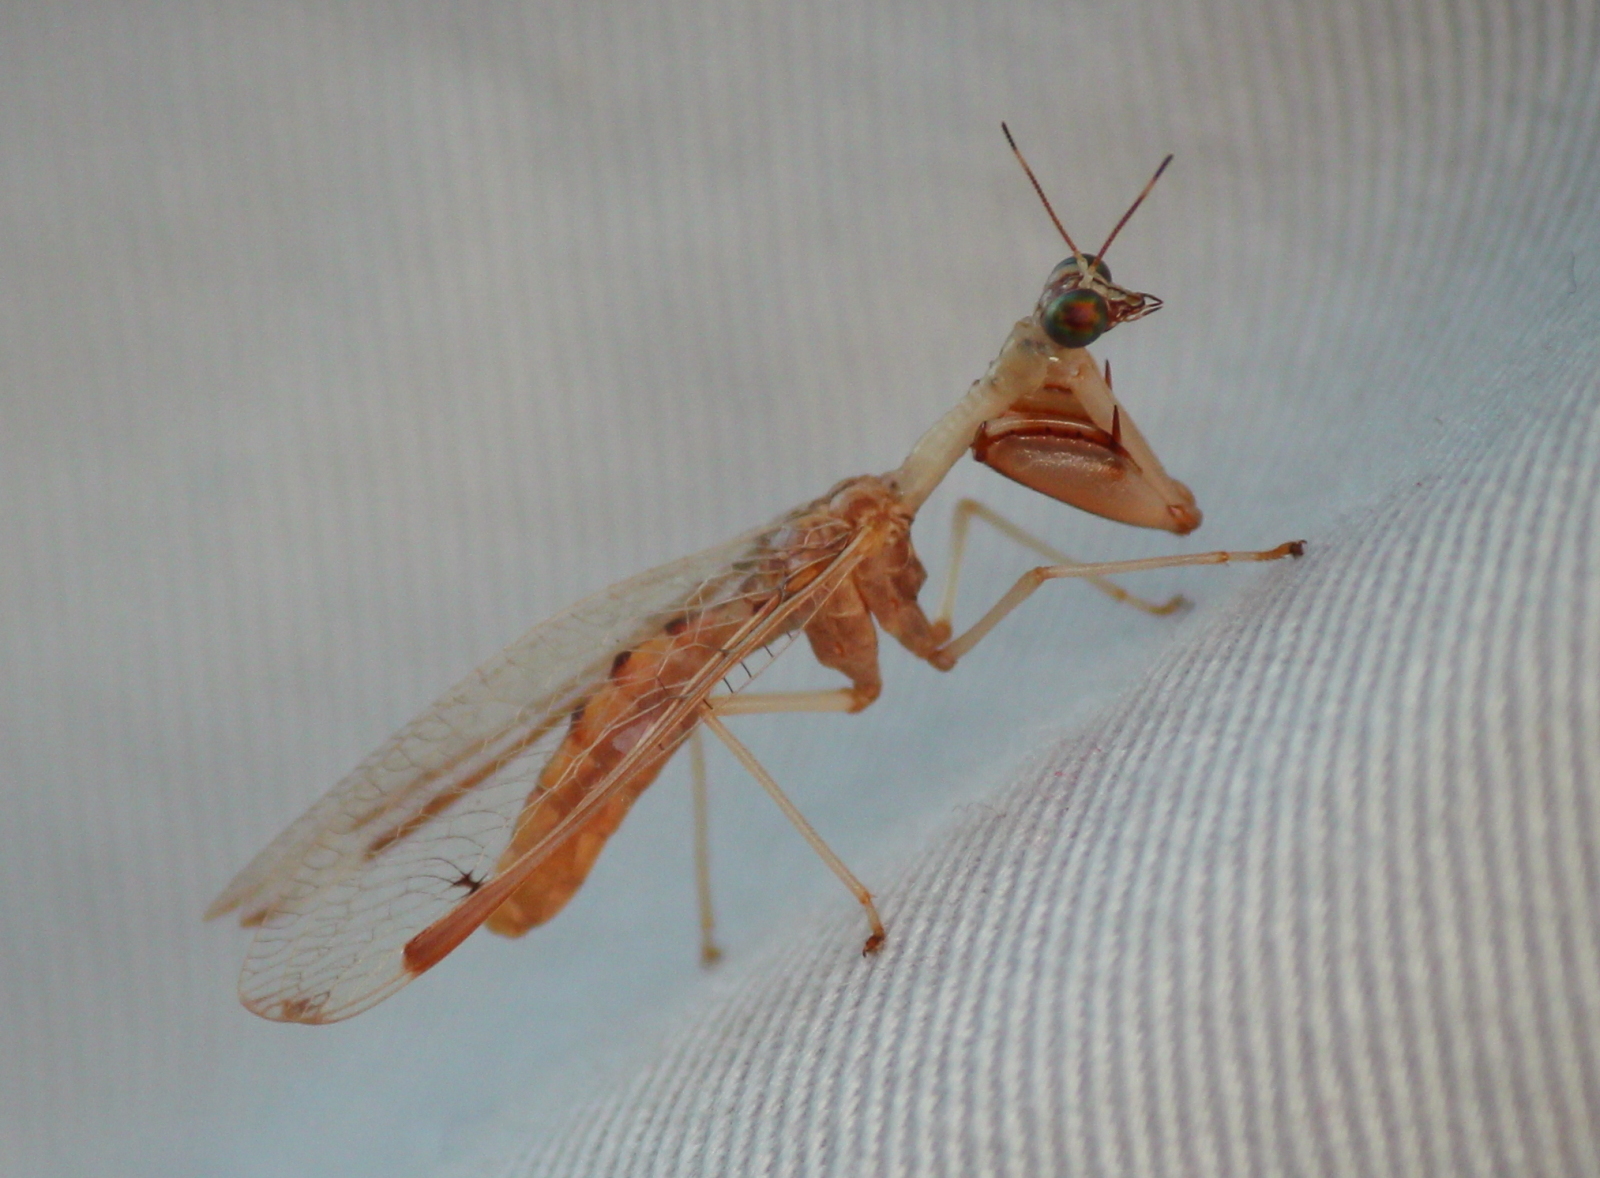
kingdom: Animalia
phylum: Arthropoda
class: Insecta
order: Neuroptera
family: Mantispidae
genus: Dicromantispa
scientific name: Dicromantispa interrupta
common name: Four-spotted mantidfly
